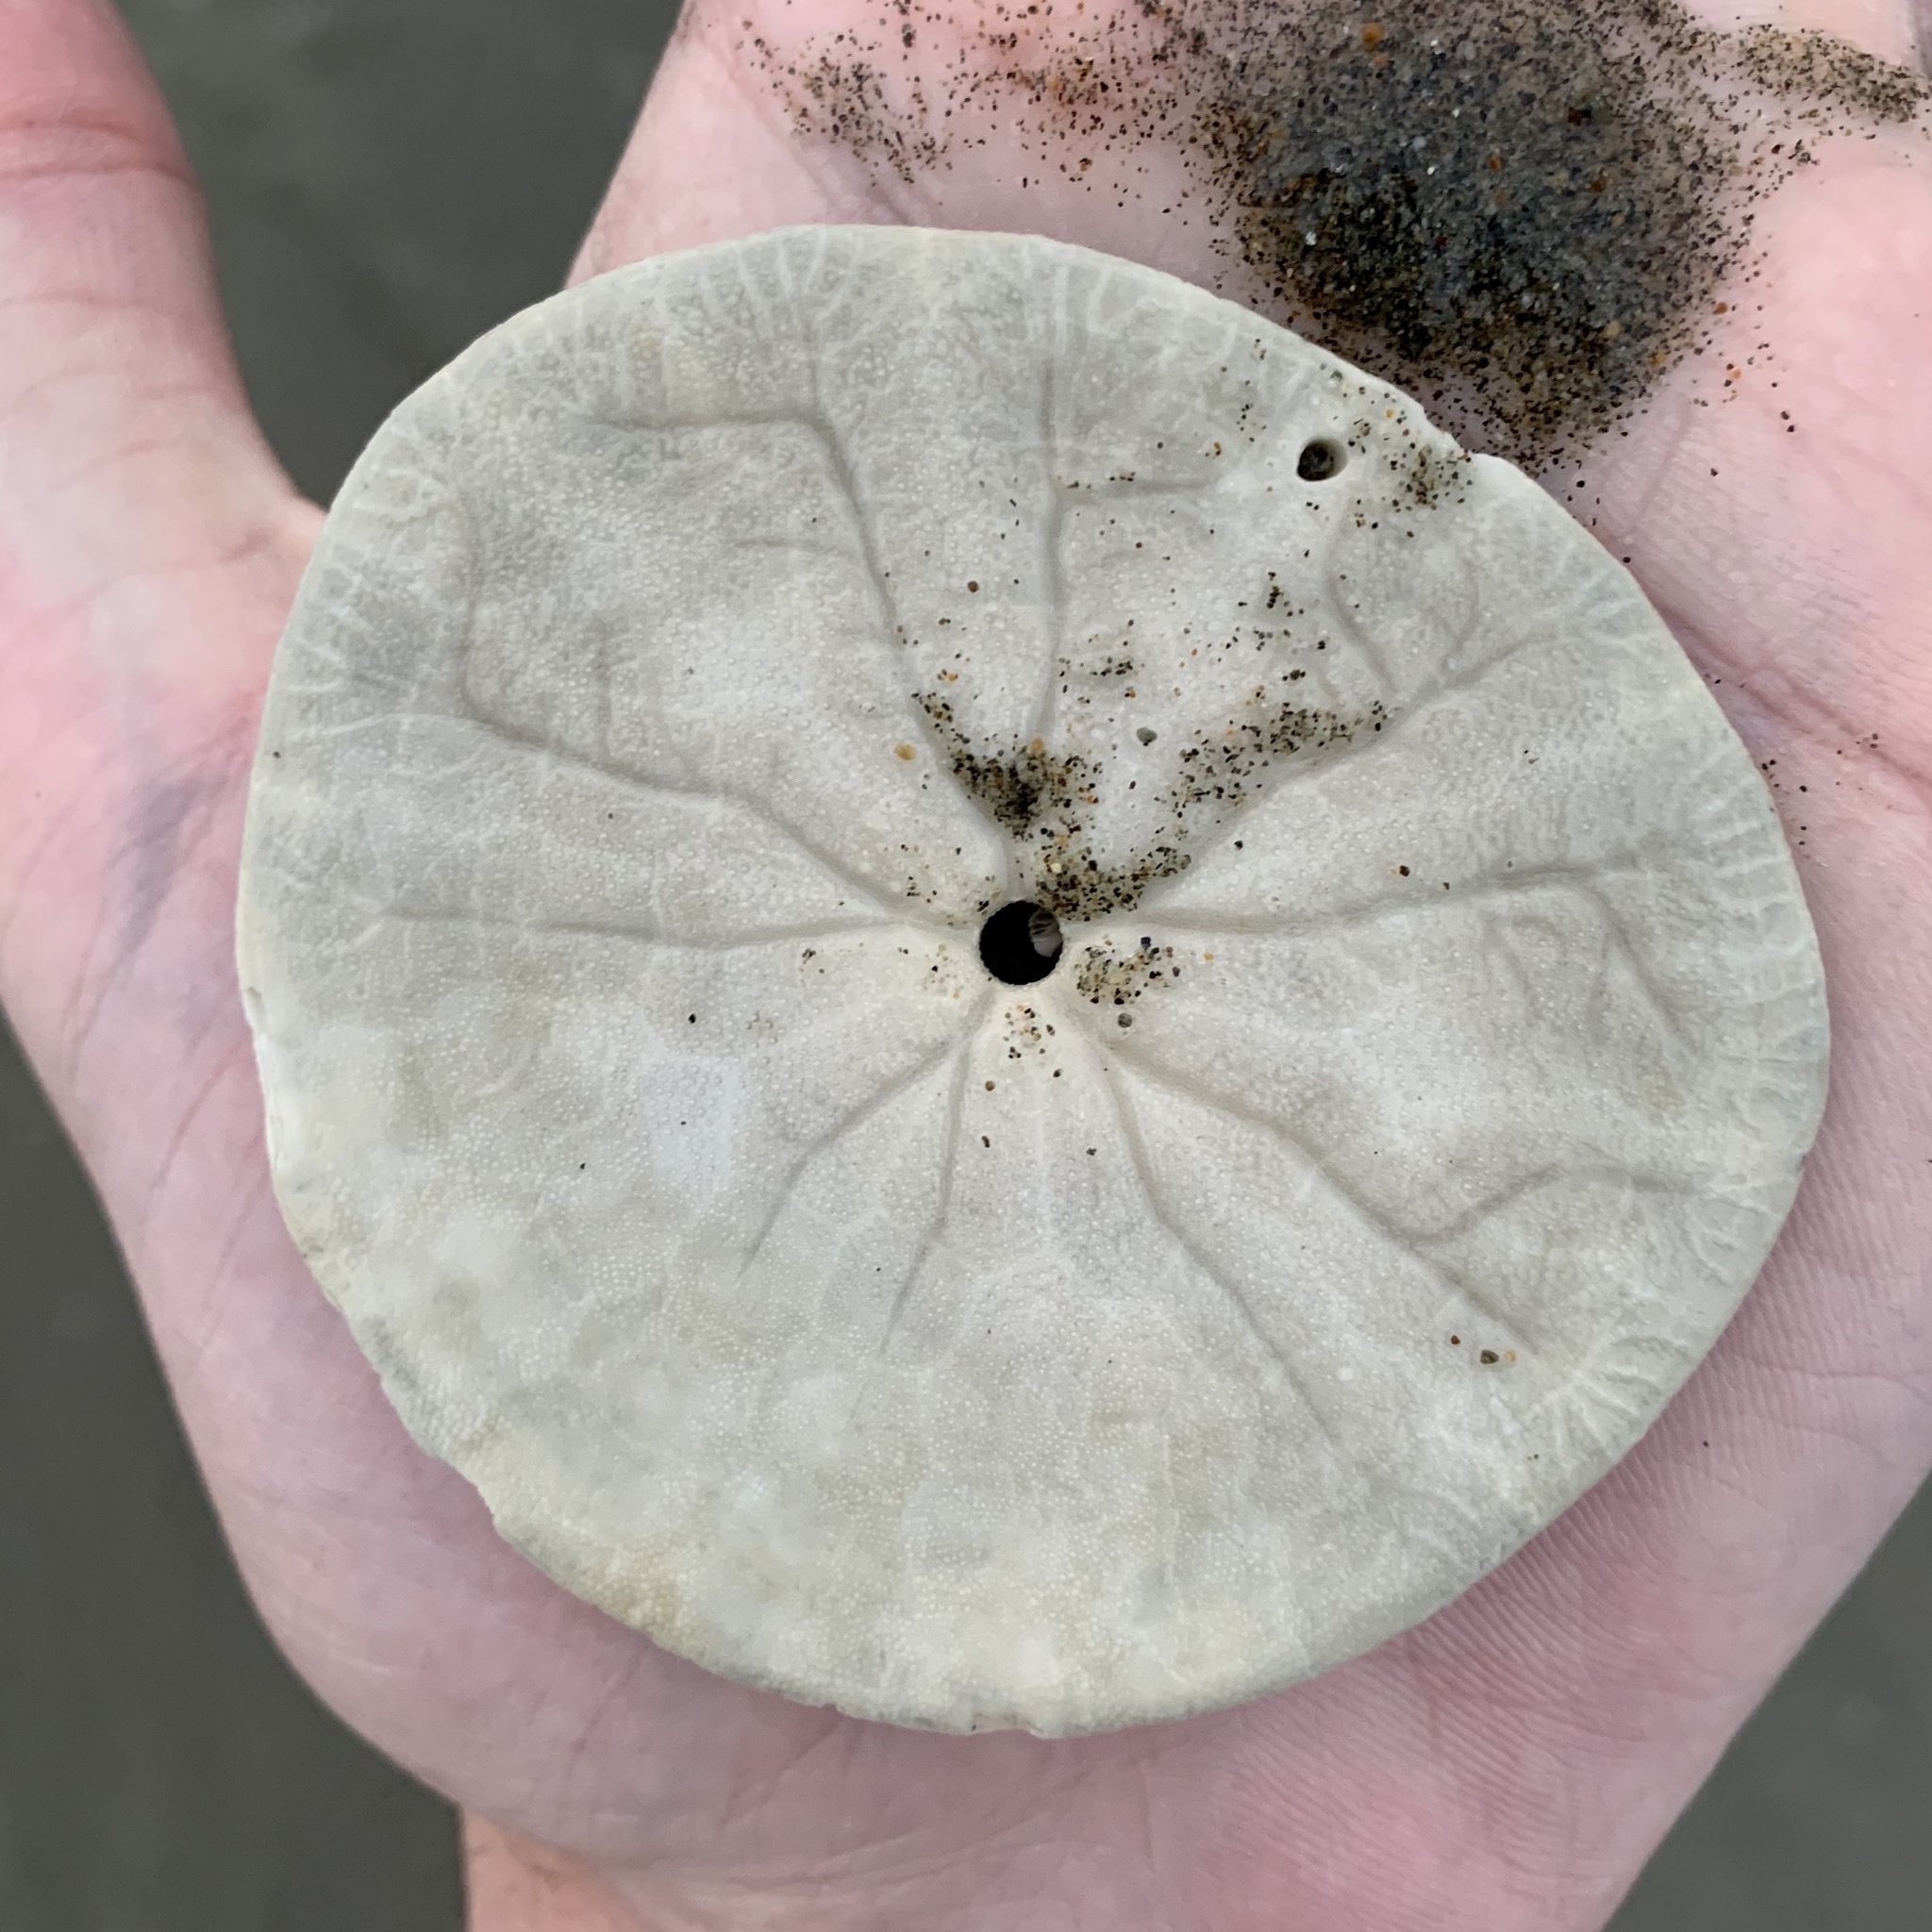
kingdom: Animalia
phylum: Echinodermata
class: Echinoidea
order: Echinolampadacea
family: Dendrasteridae
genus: Dendraster
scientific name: Dendraster excentricus
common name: Eccentric sand dollar sea urchin
